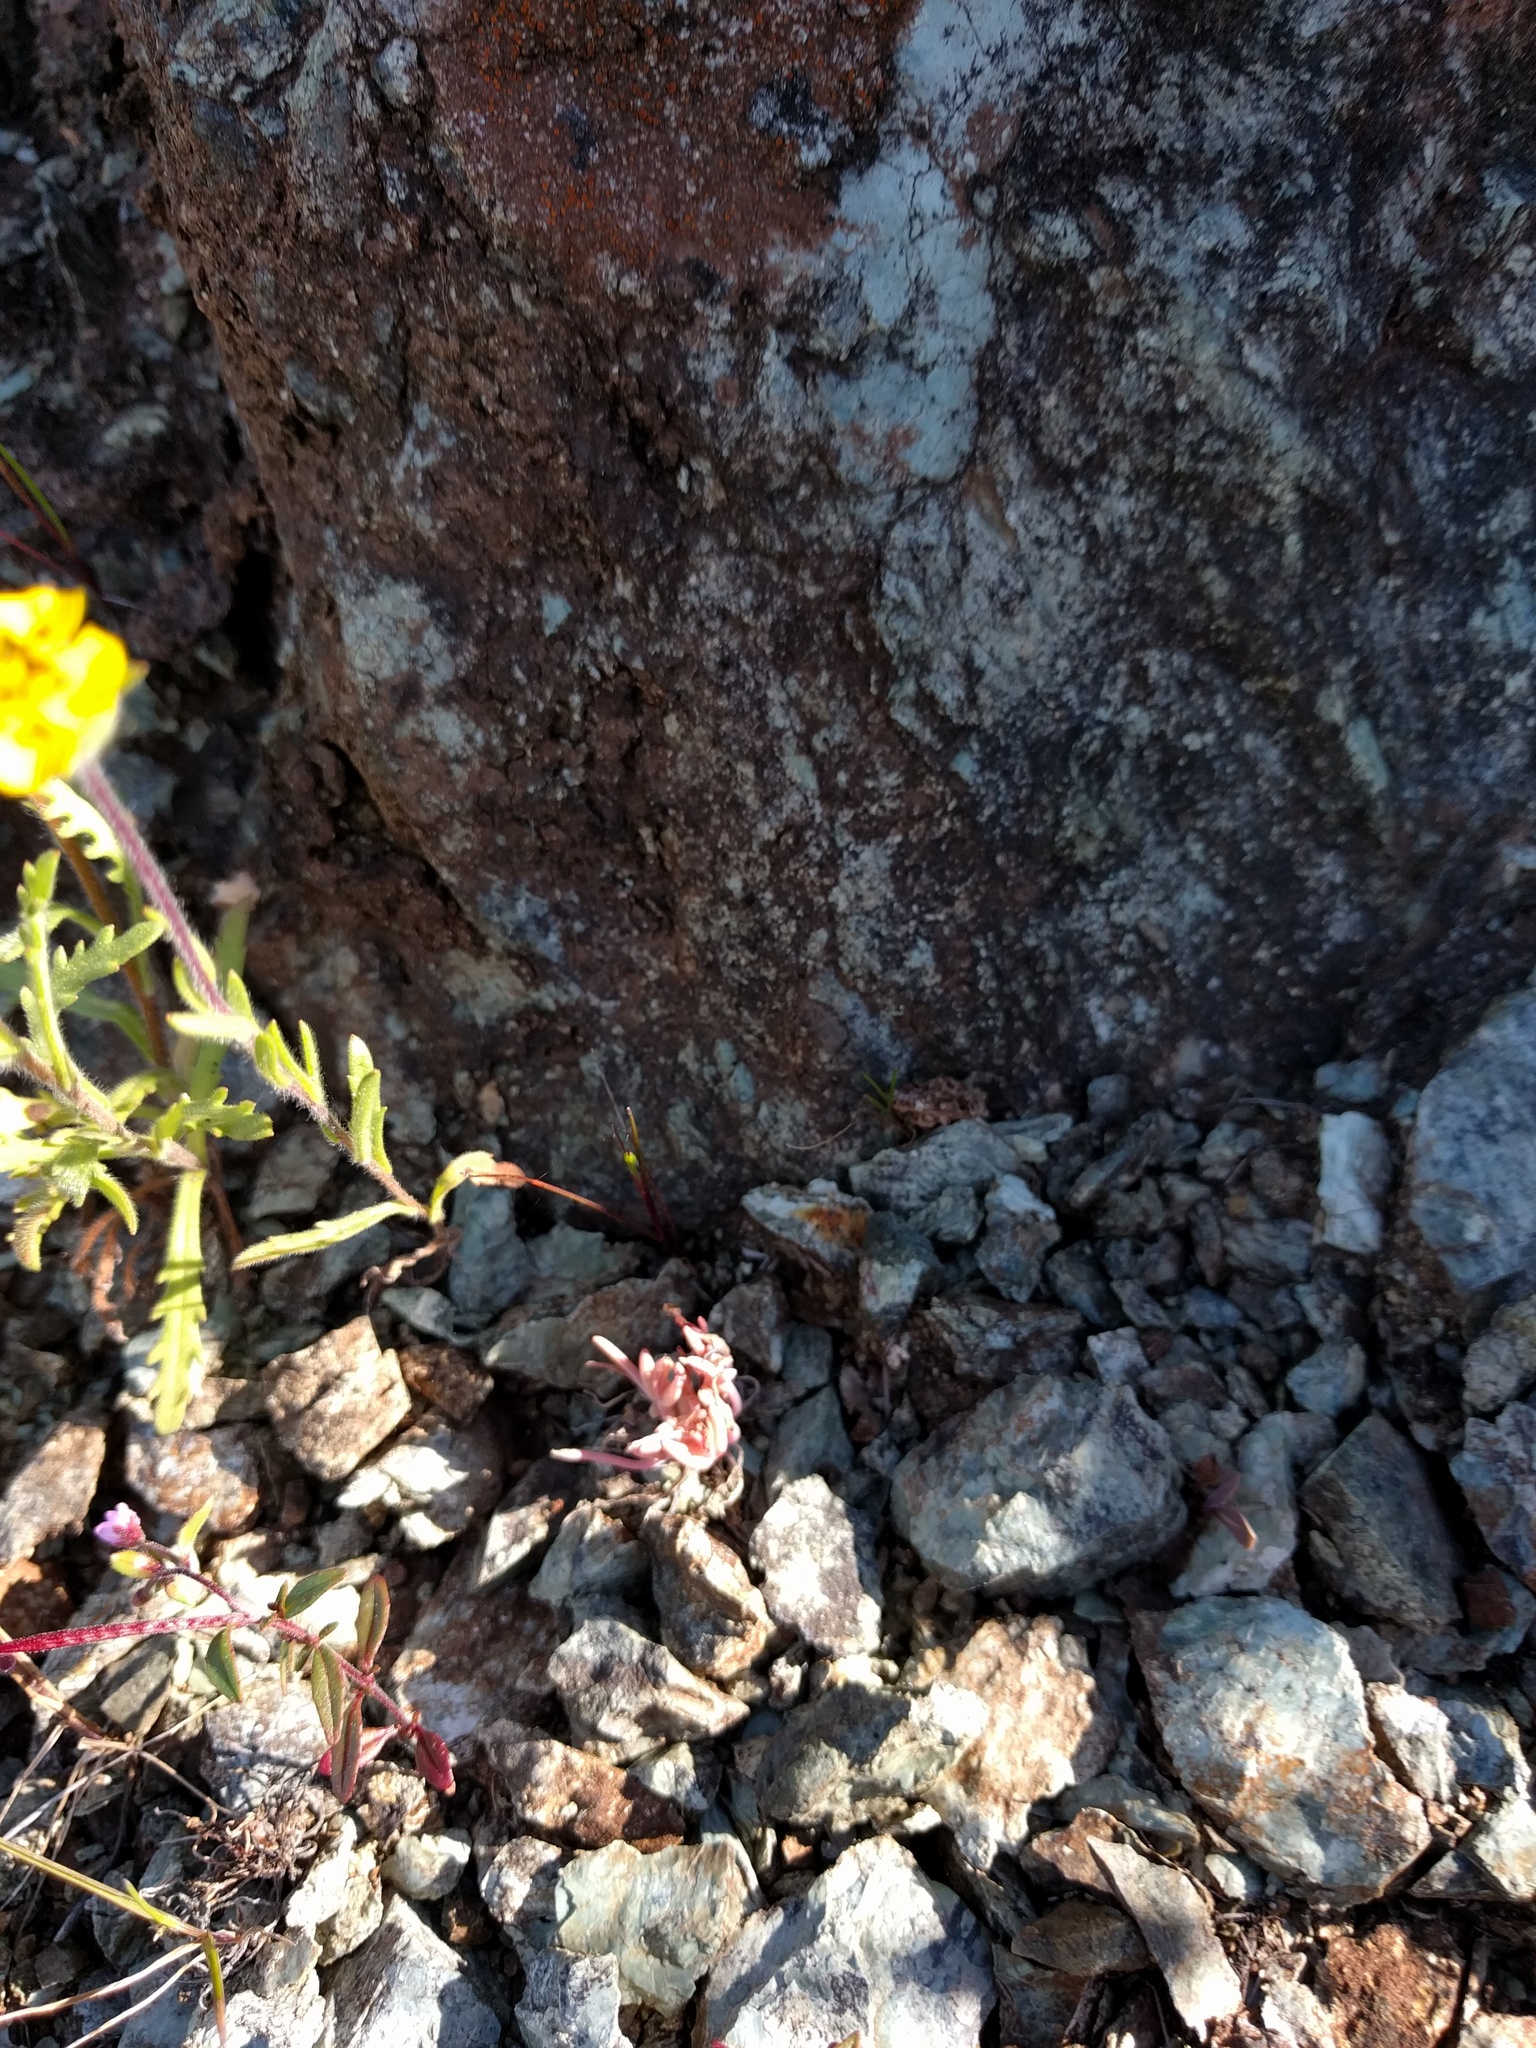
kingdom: Plantae
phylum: Tracheophyta
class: Magnoliopsida
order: Caryophyllales
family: Montiaceae
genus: Claytonia
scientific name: Claytonia exigua
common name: Pale spring beauty
